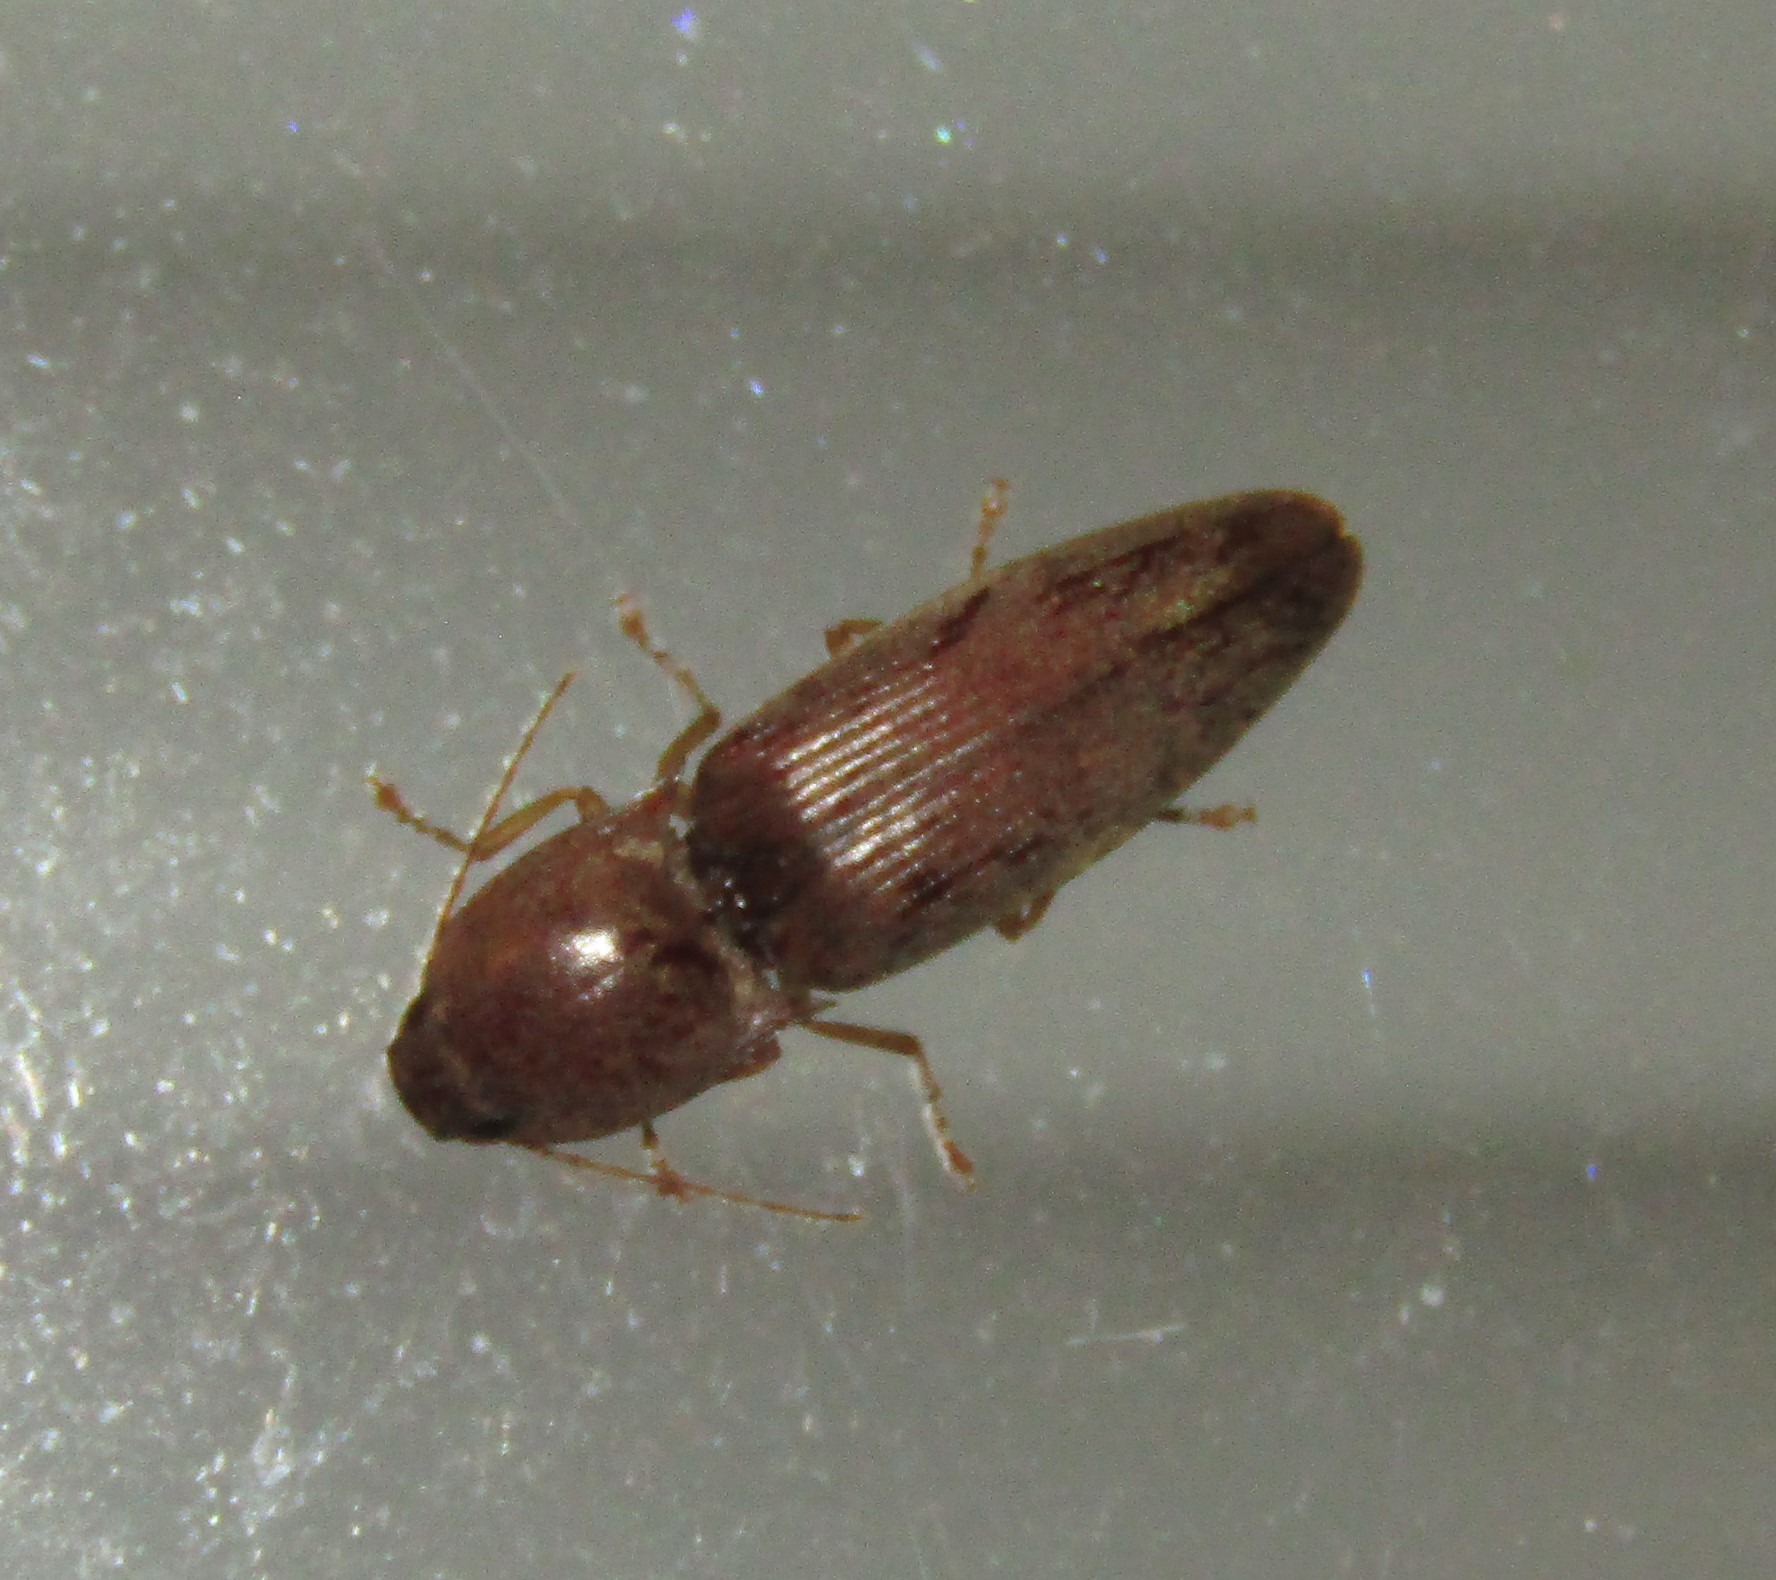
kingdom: Animalia
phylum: Arthropoda
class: Insecta
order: Coleoptera
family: Elateridae
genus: Monocrepidius
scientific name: Monocrepidius lividus
